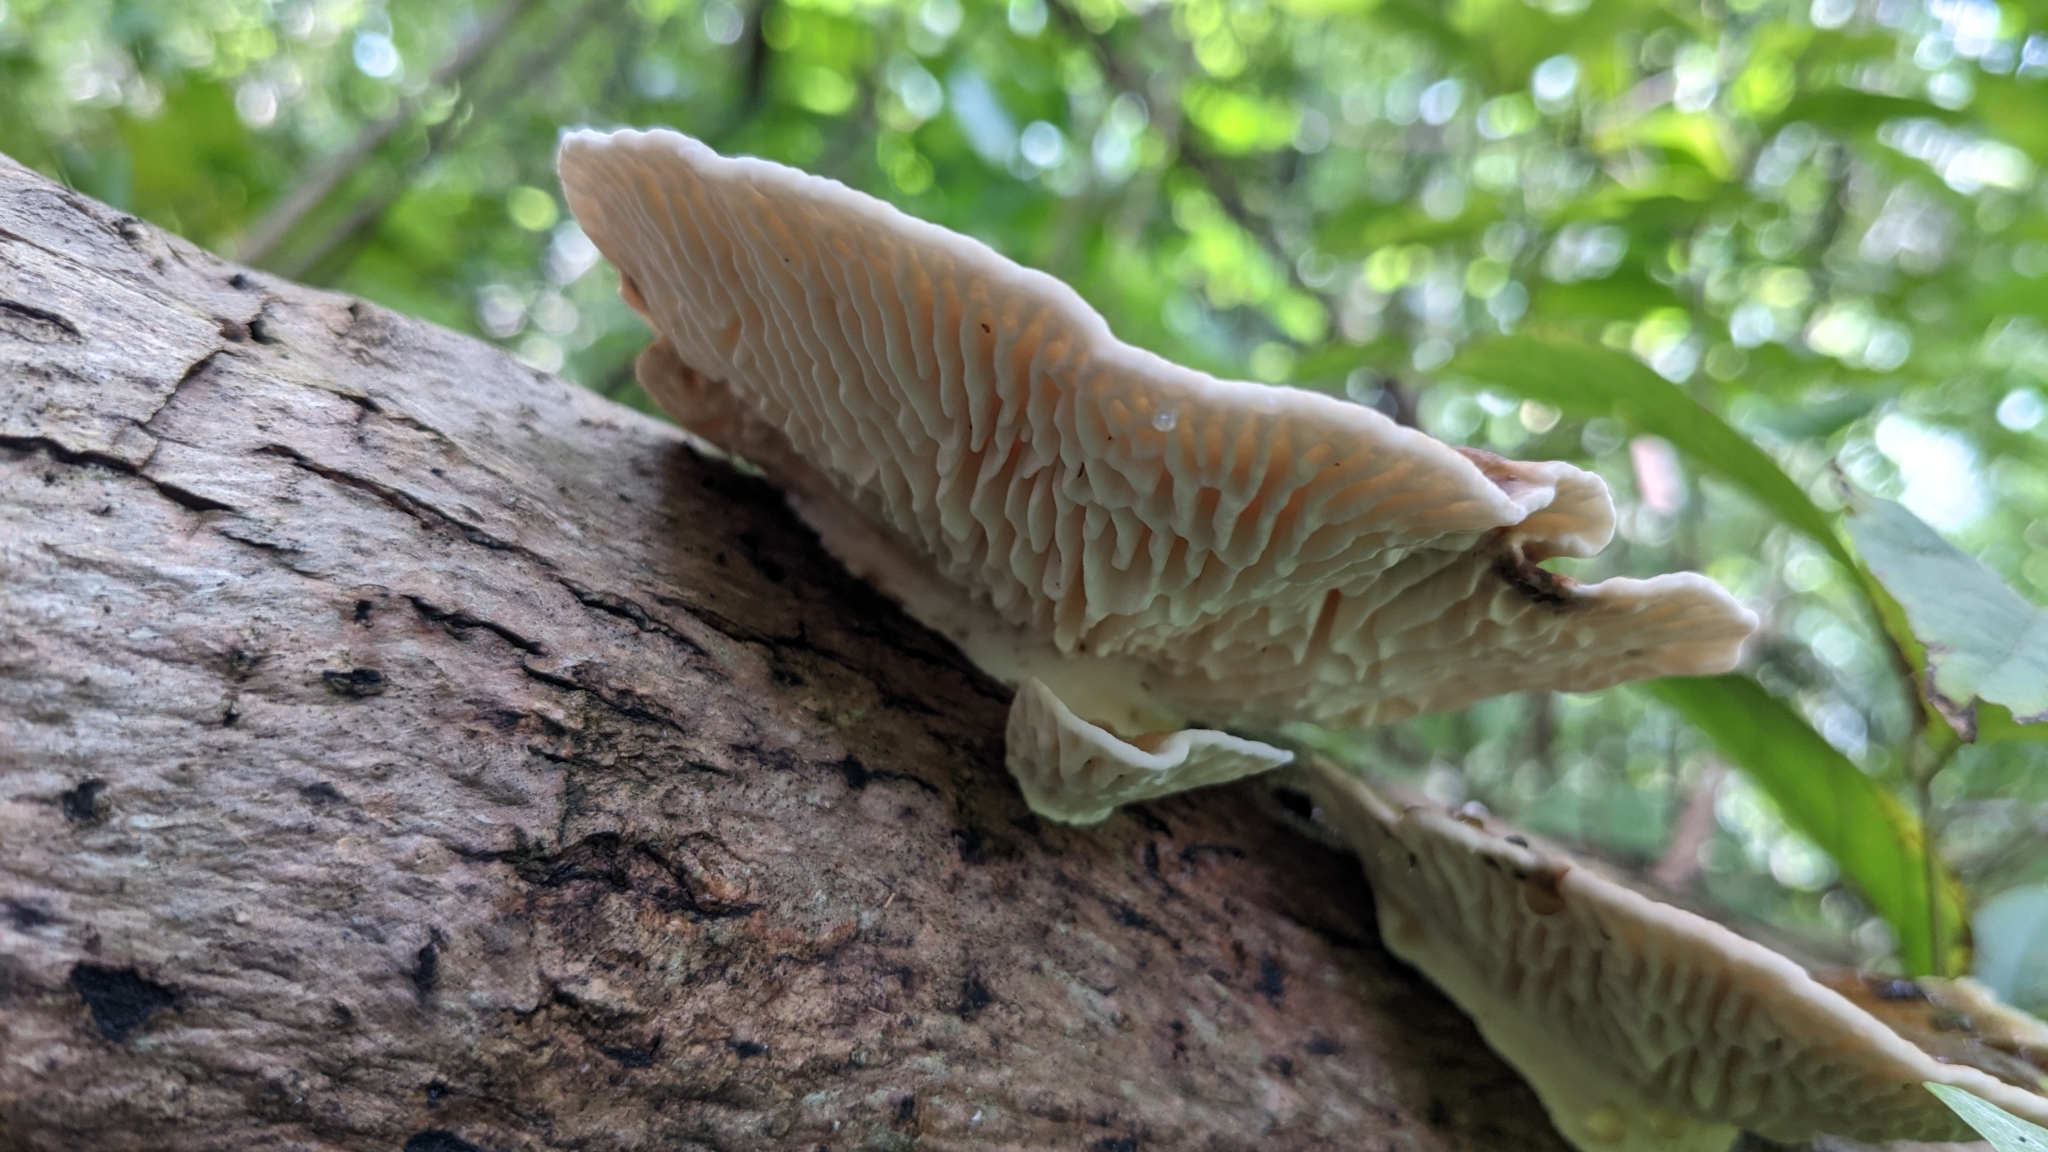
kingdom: Fungi
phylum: Basidiomycota
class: Agaricomycetes
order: Polyporales
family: Polyporaceae
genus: Trametes
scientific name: Trametes tenuis
